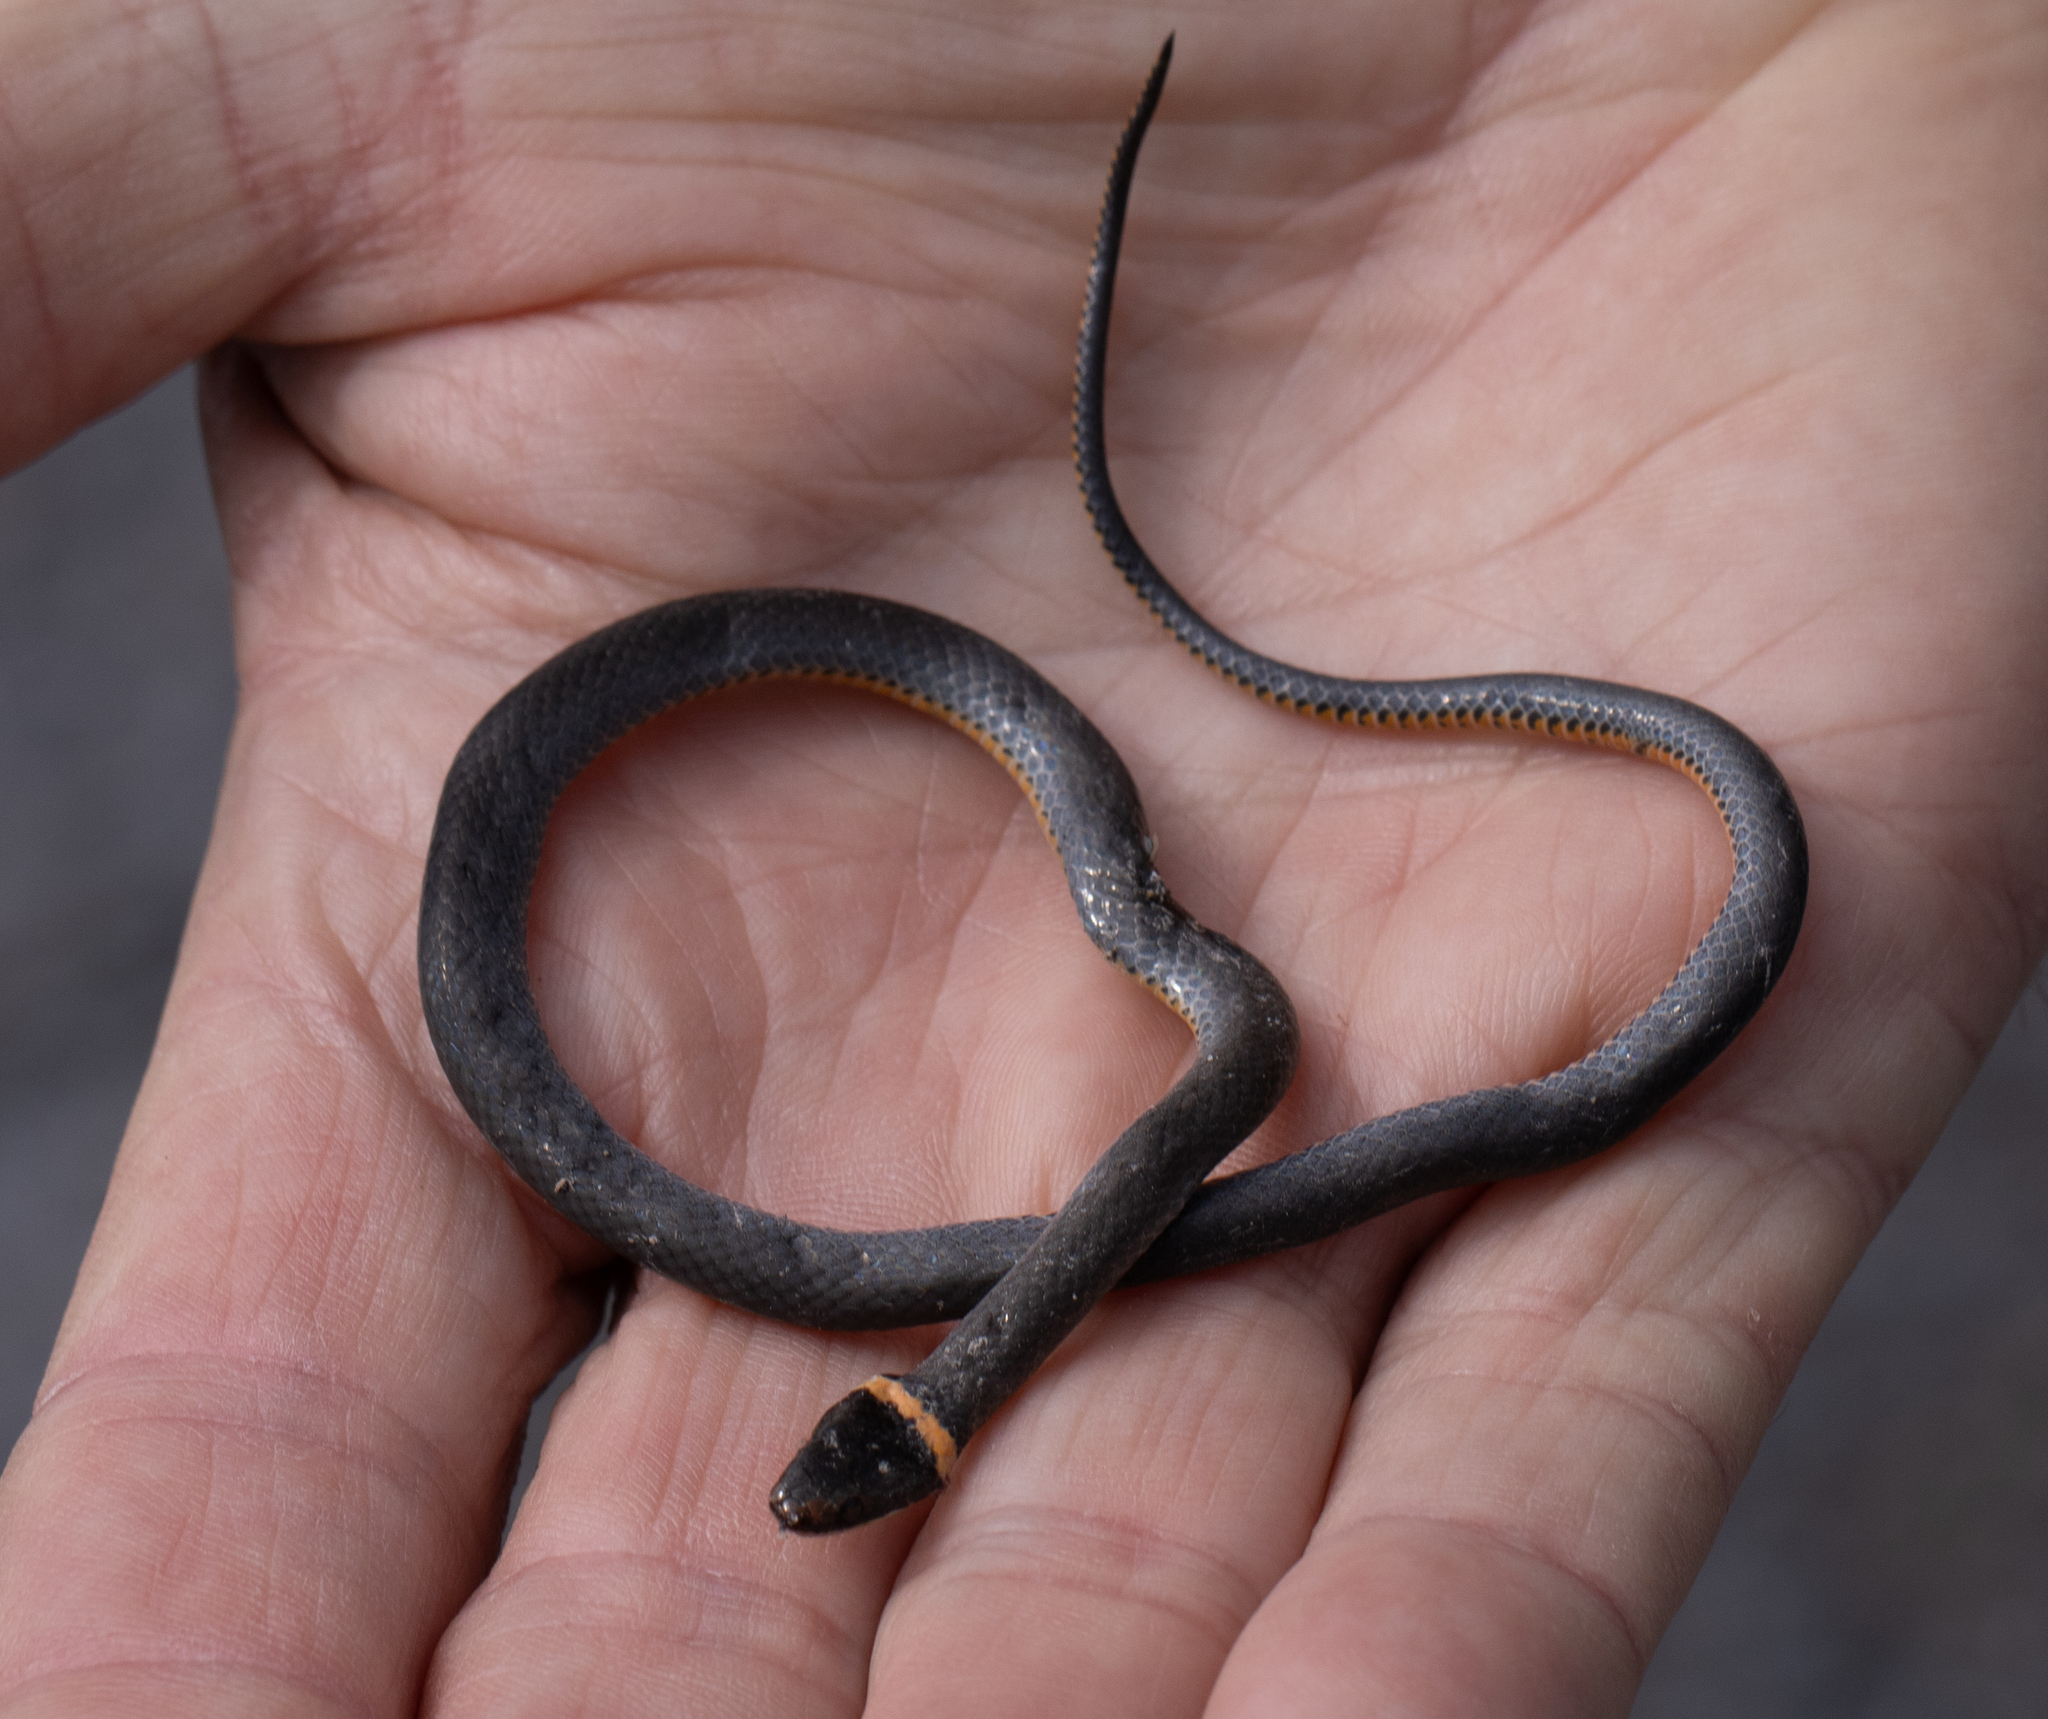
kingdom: Animalia
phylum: Chordata
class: Squamata
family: Colubridae
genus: Diadophis
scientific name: Diadophis punctatus
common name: Ringneck snake
